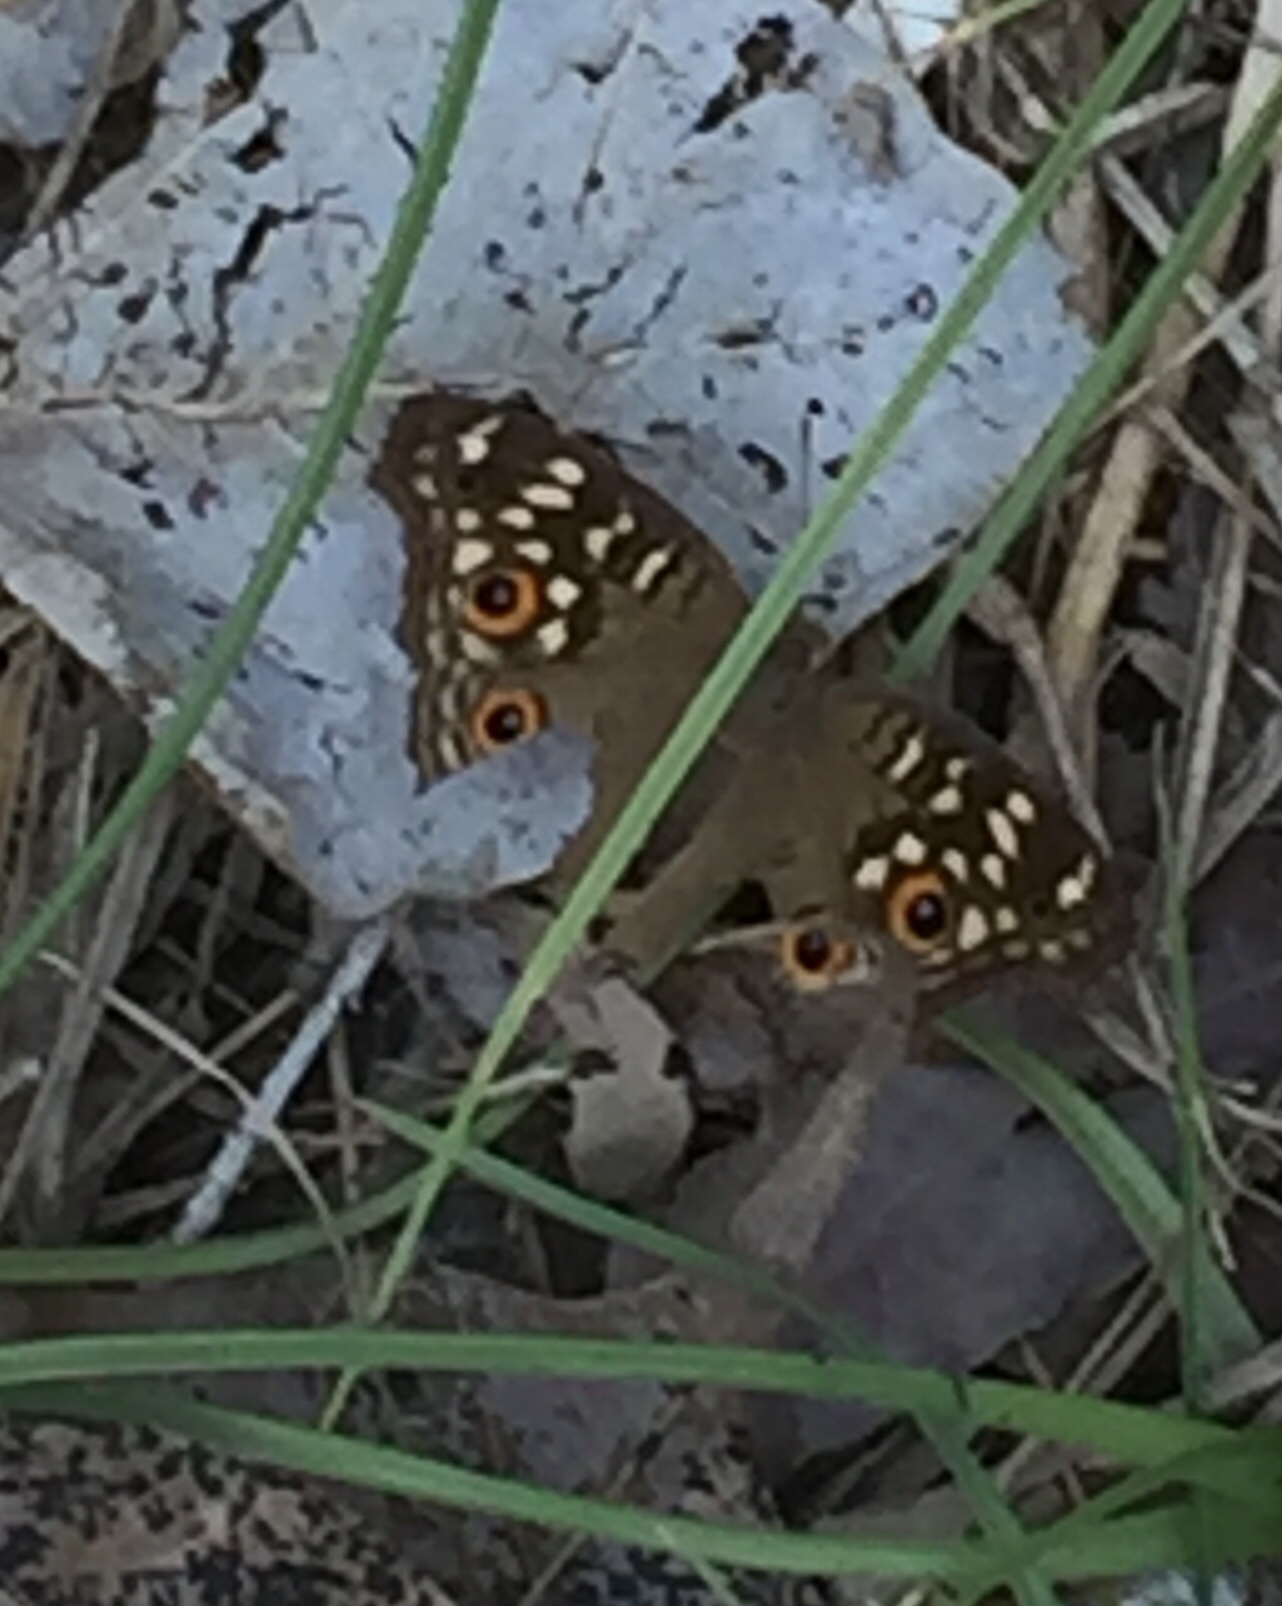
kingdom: Animalia
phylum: Arthropoda
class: Insecta
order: Lepidoptera
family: Nymphalidae
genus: Junonia
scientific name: Junonia lemonias
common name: Lemon pansy
